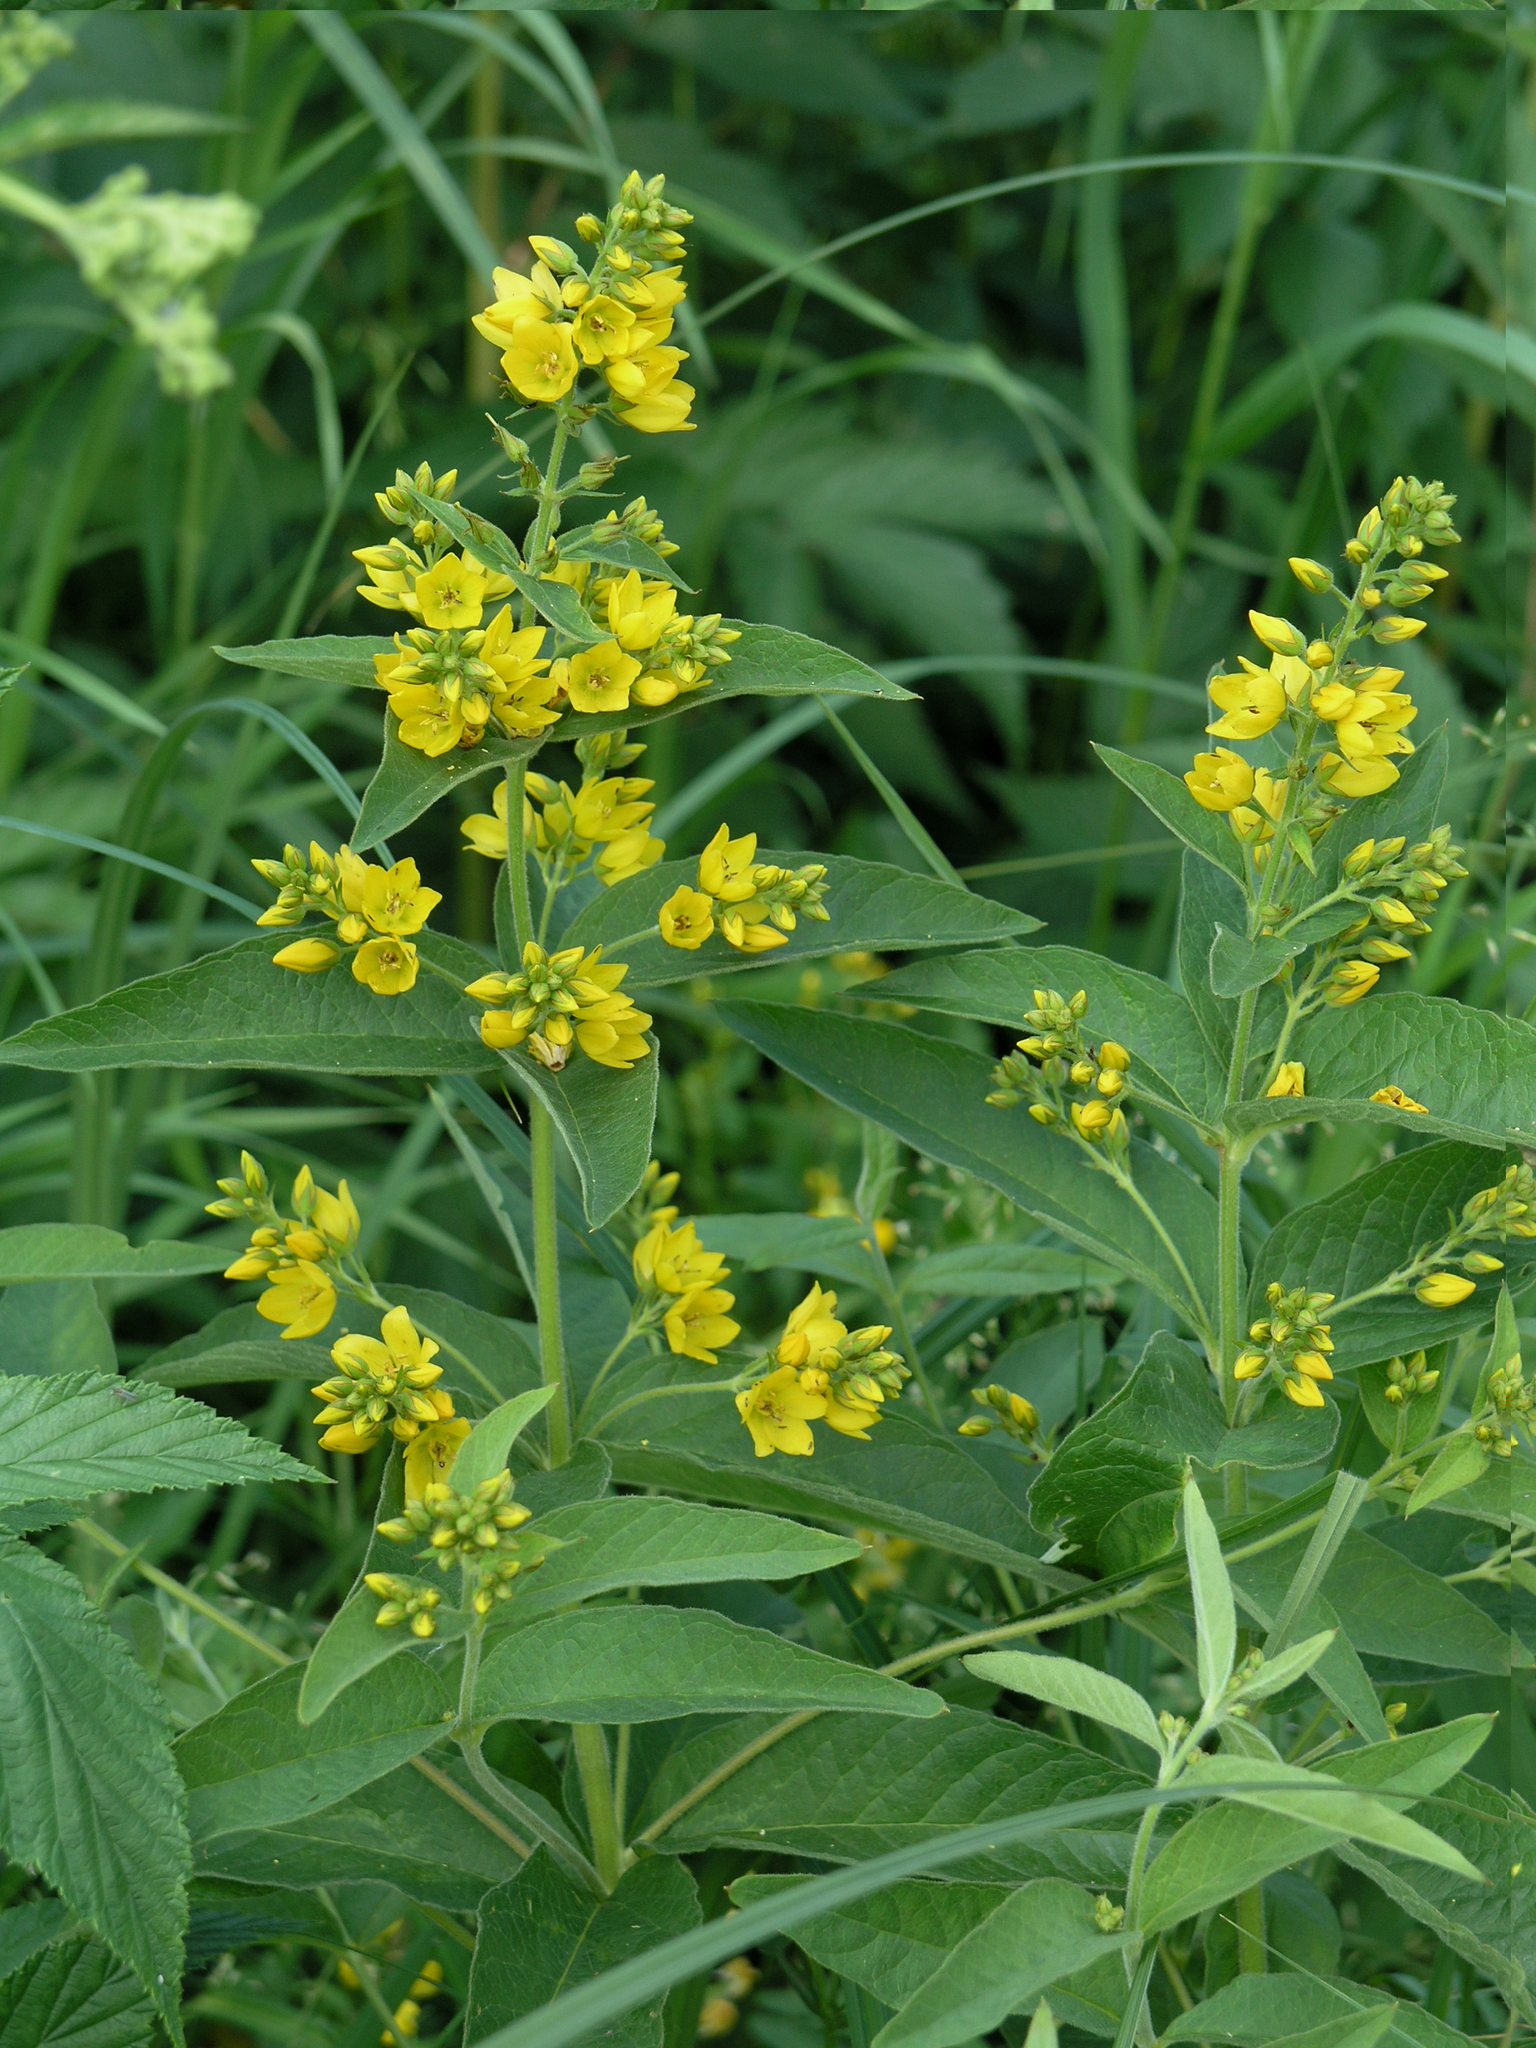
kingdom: Plantae
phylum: Tracheophyta
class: Magnoliopsida
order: Ericales
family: Primulaceae
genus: Lysimachia
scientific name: Lysimachia vulgaris
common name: Yellow loosestrife
